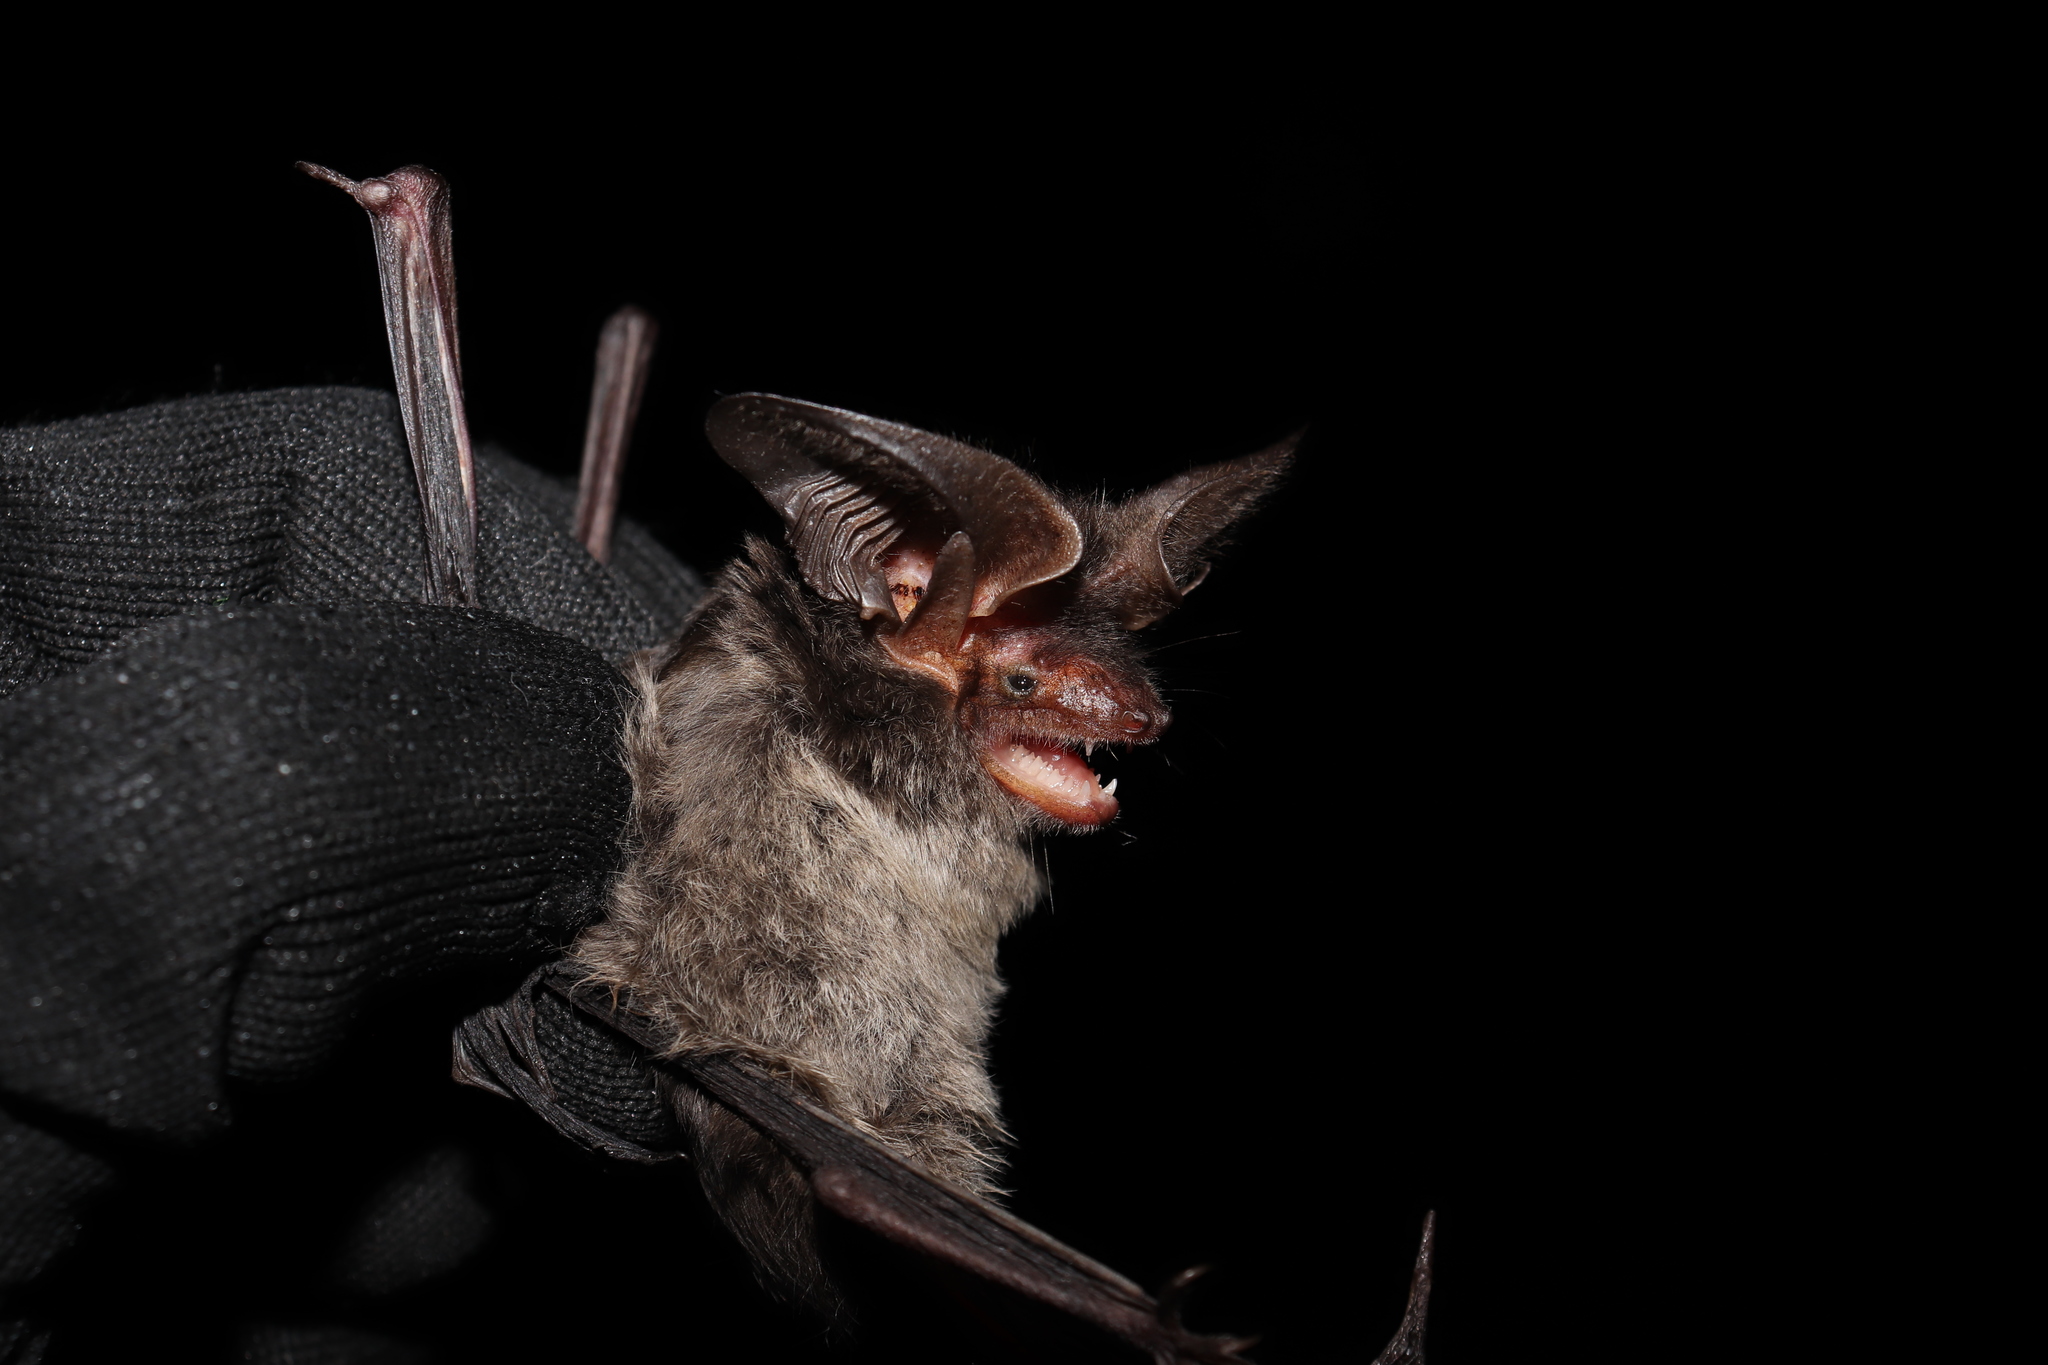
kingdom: Animalia
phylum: Chordata
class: Mammalia
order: Chiroptera
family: Vespertilionidae
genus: Histiotus
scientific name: Histiotus velatus
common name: Tropical big-eared brown bat
